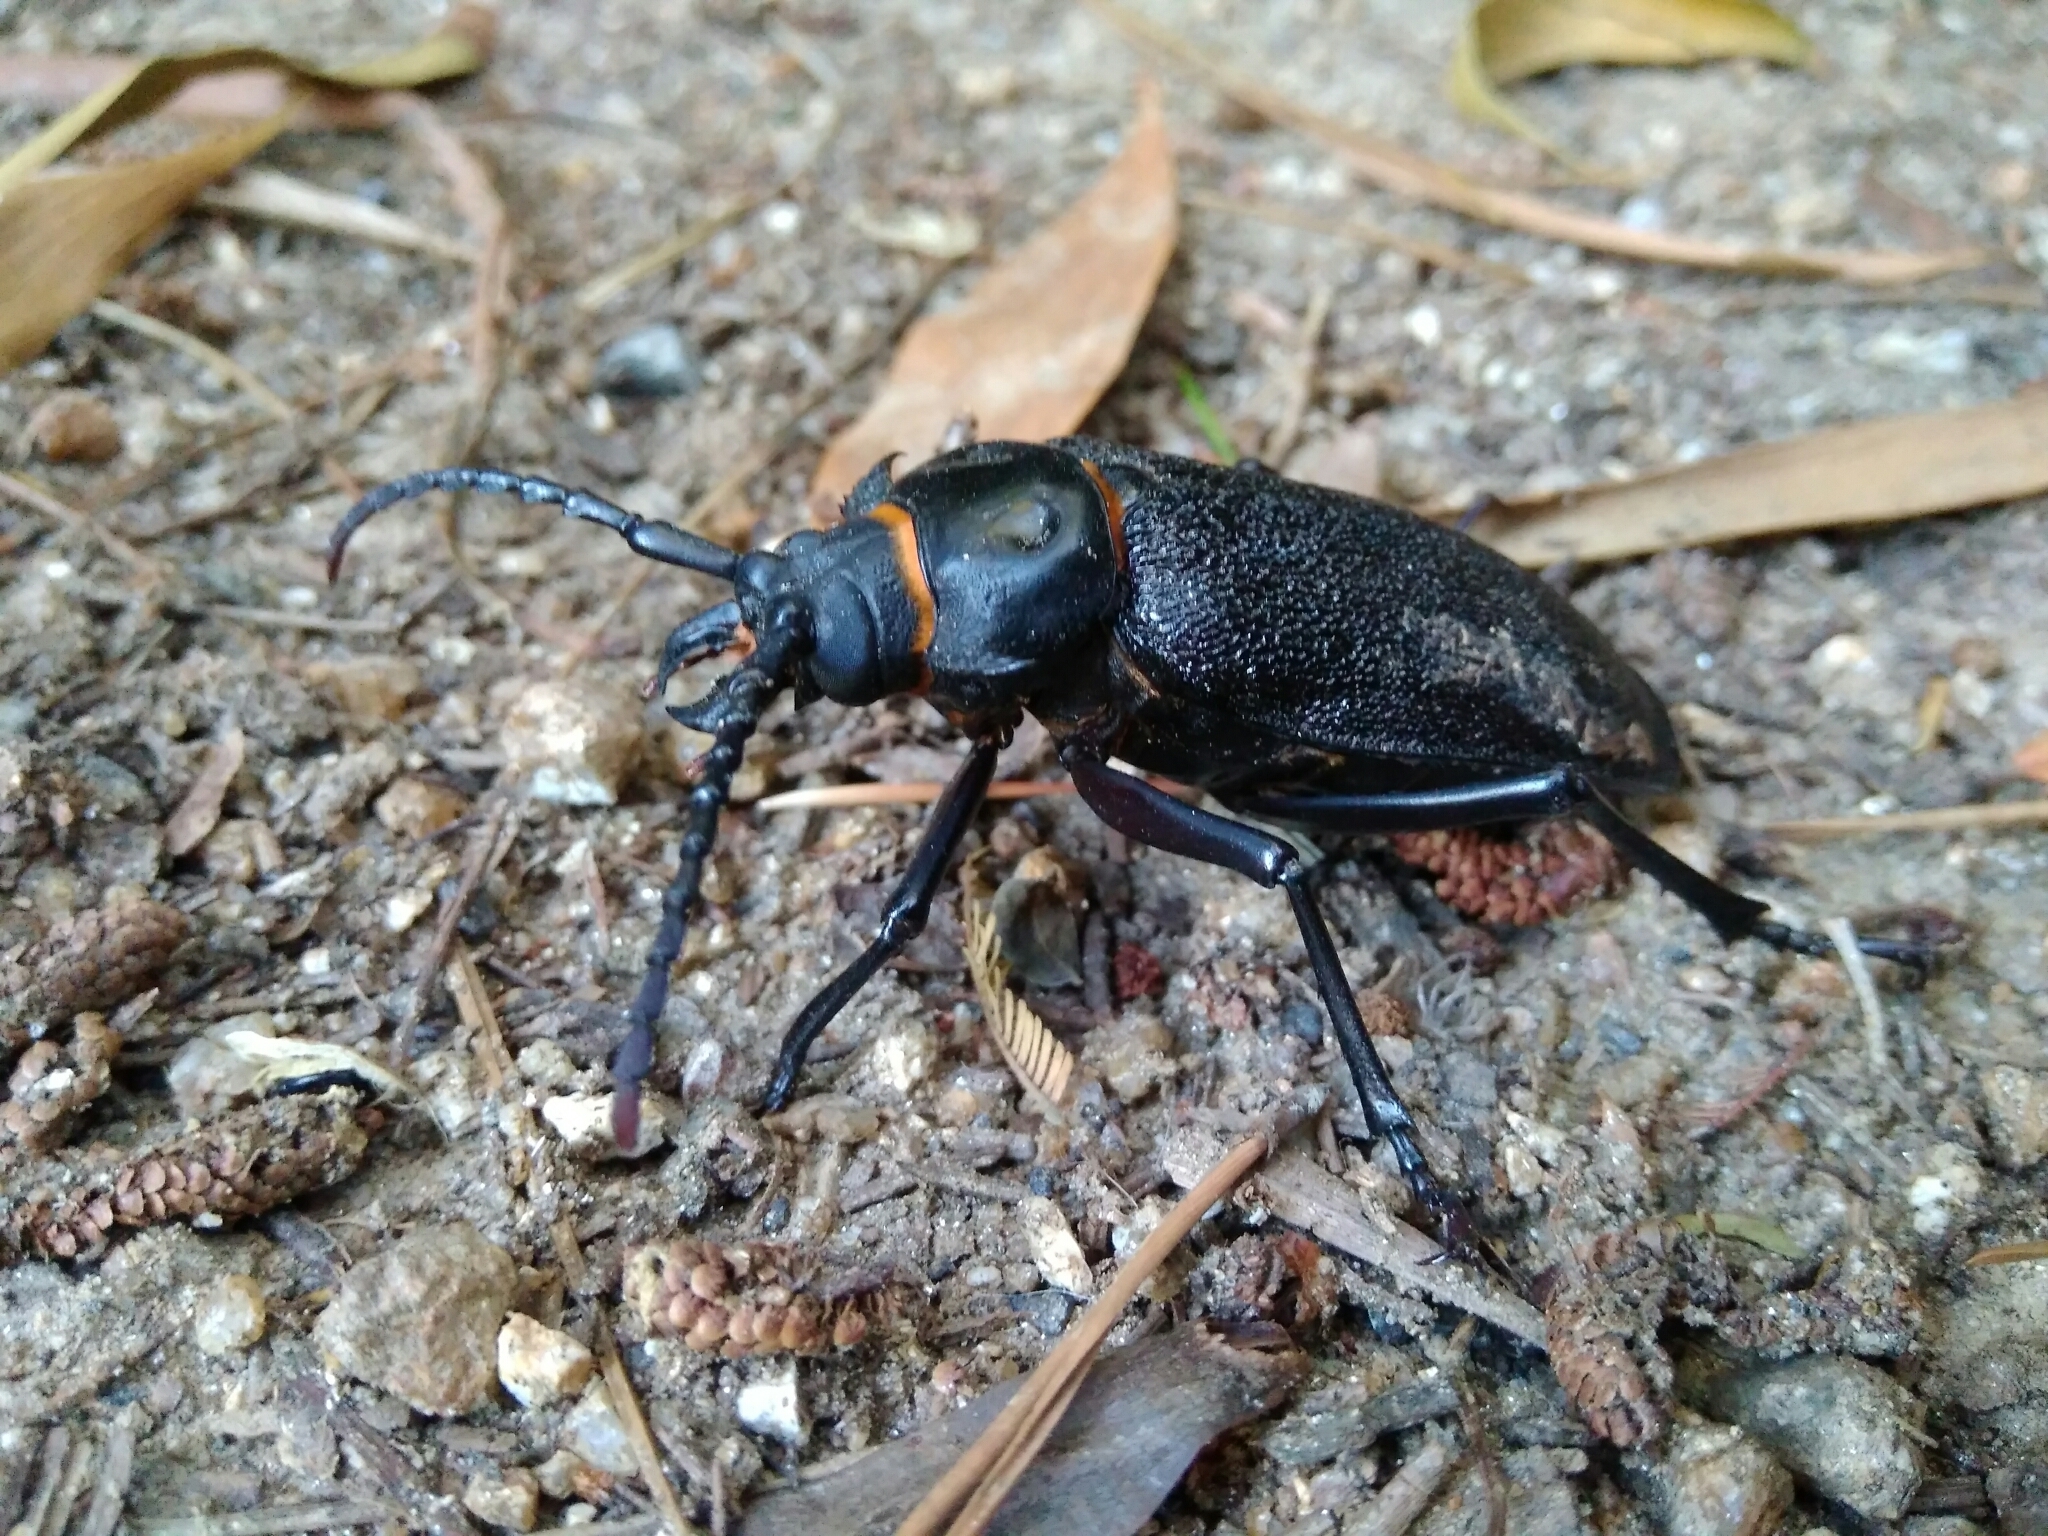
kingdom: Animalia
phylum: Arthropoda
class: Insecta
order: Coleoptera
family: Cerambycidae
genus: Acanthinodera
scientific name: Acanthinodera cumingii
